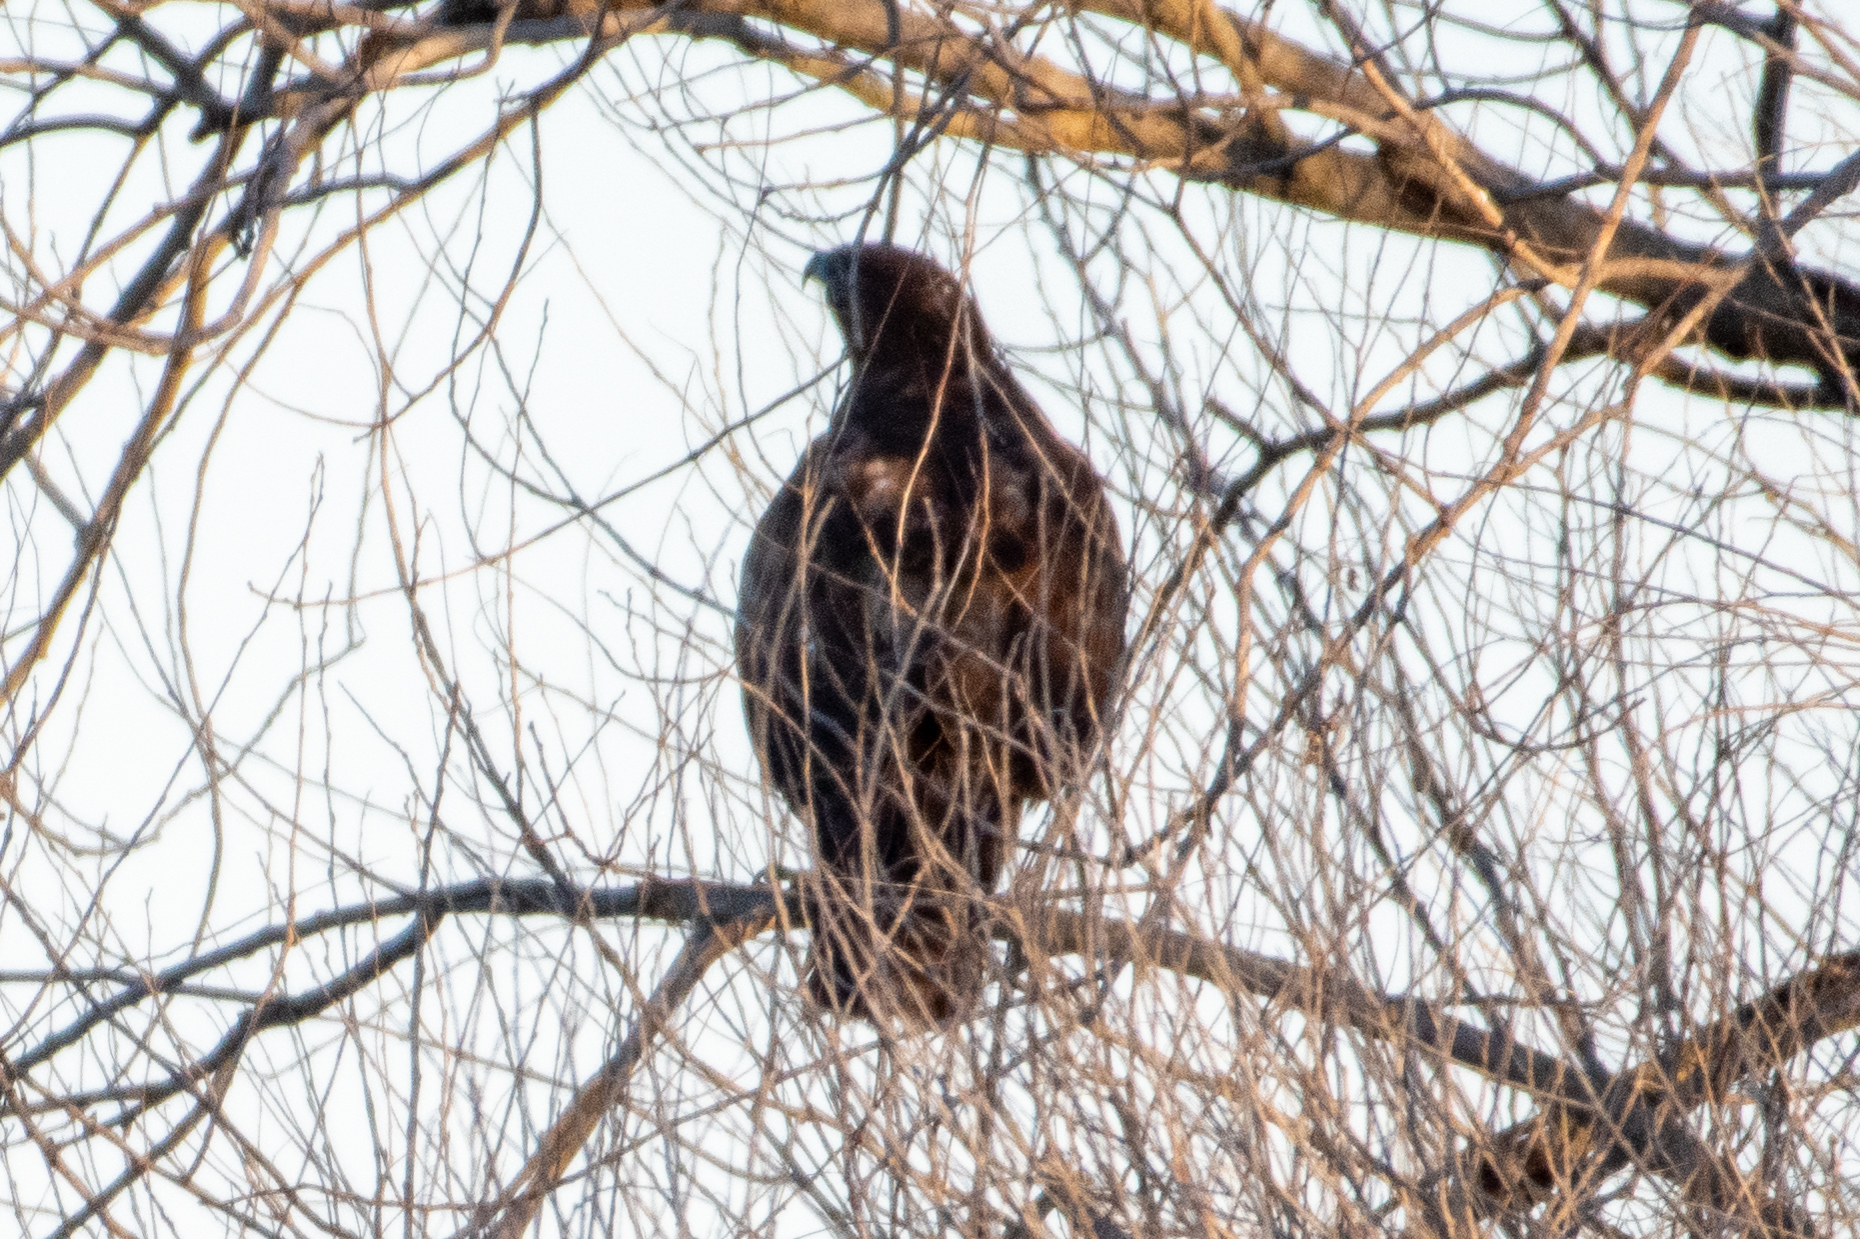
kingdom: Animalia
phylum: Chordata
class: Aves
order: Accipitriformes
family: Accipitridae
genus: Buteo
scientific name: Buteo jamaicensis
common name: Red-tailed hawk
